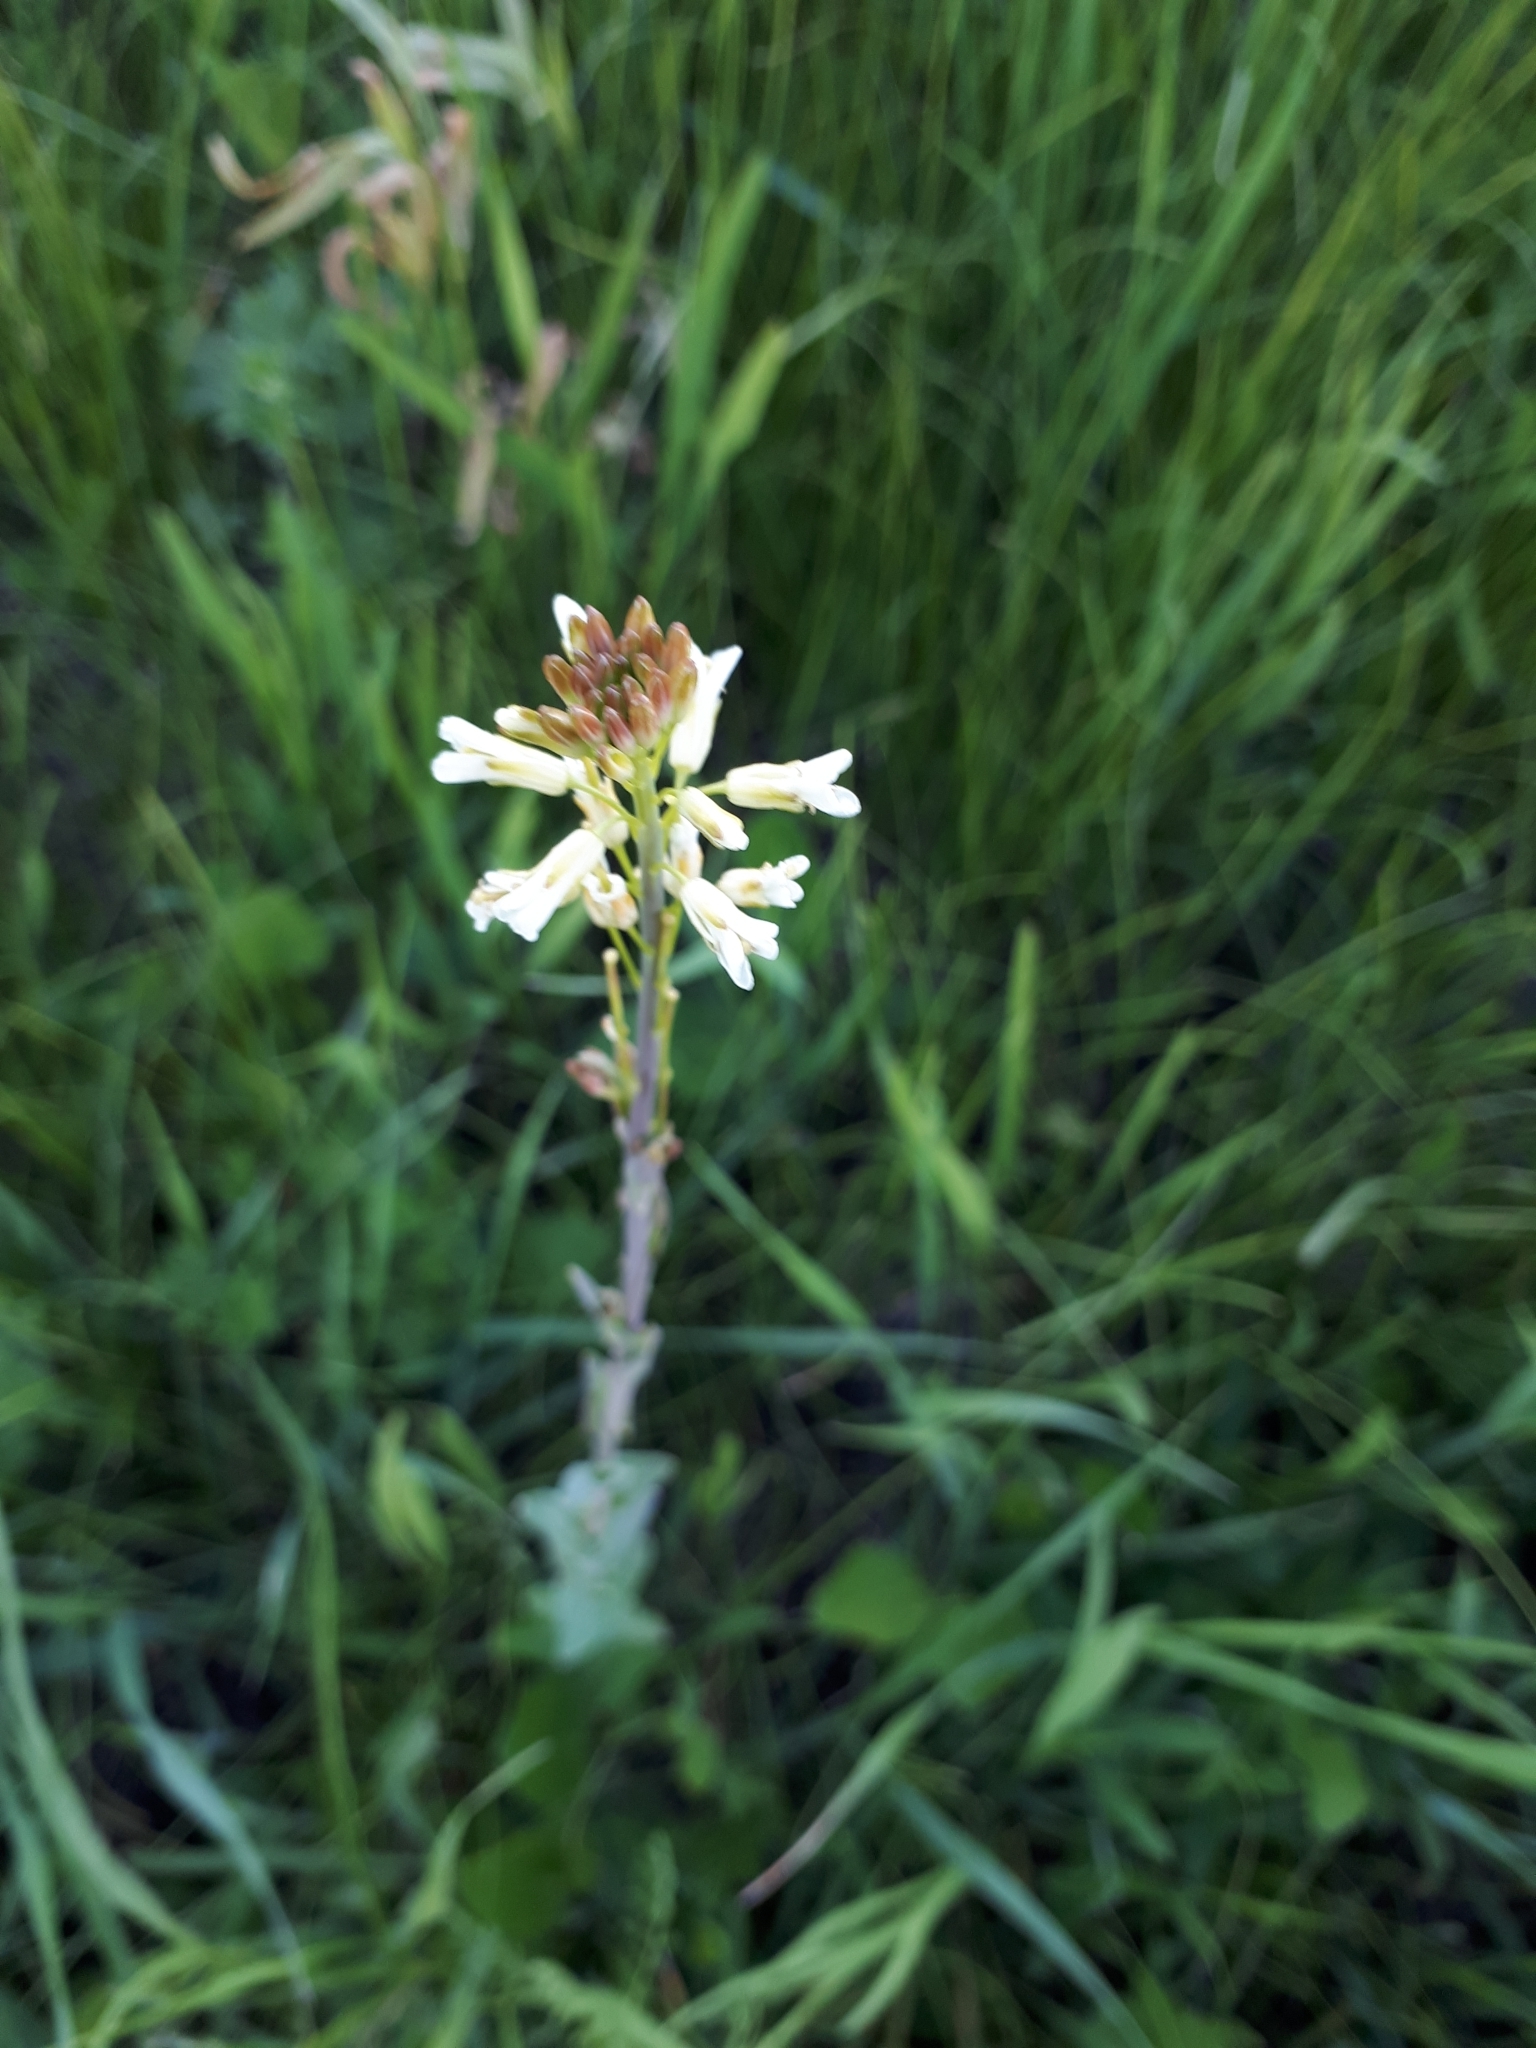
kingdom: Plantae
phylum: Tracheophyta
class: Magnoliopsida
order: Brassicales
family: Brassicaceae
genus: Turritis
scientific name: Turritis glabra
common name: Tower rockcress
